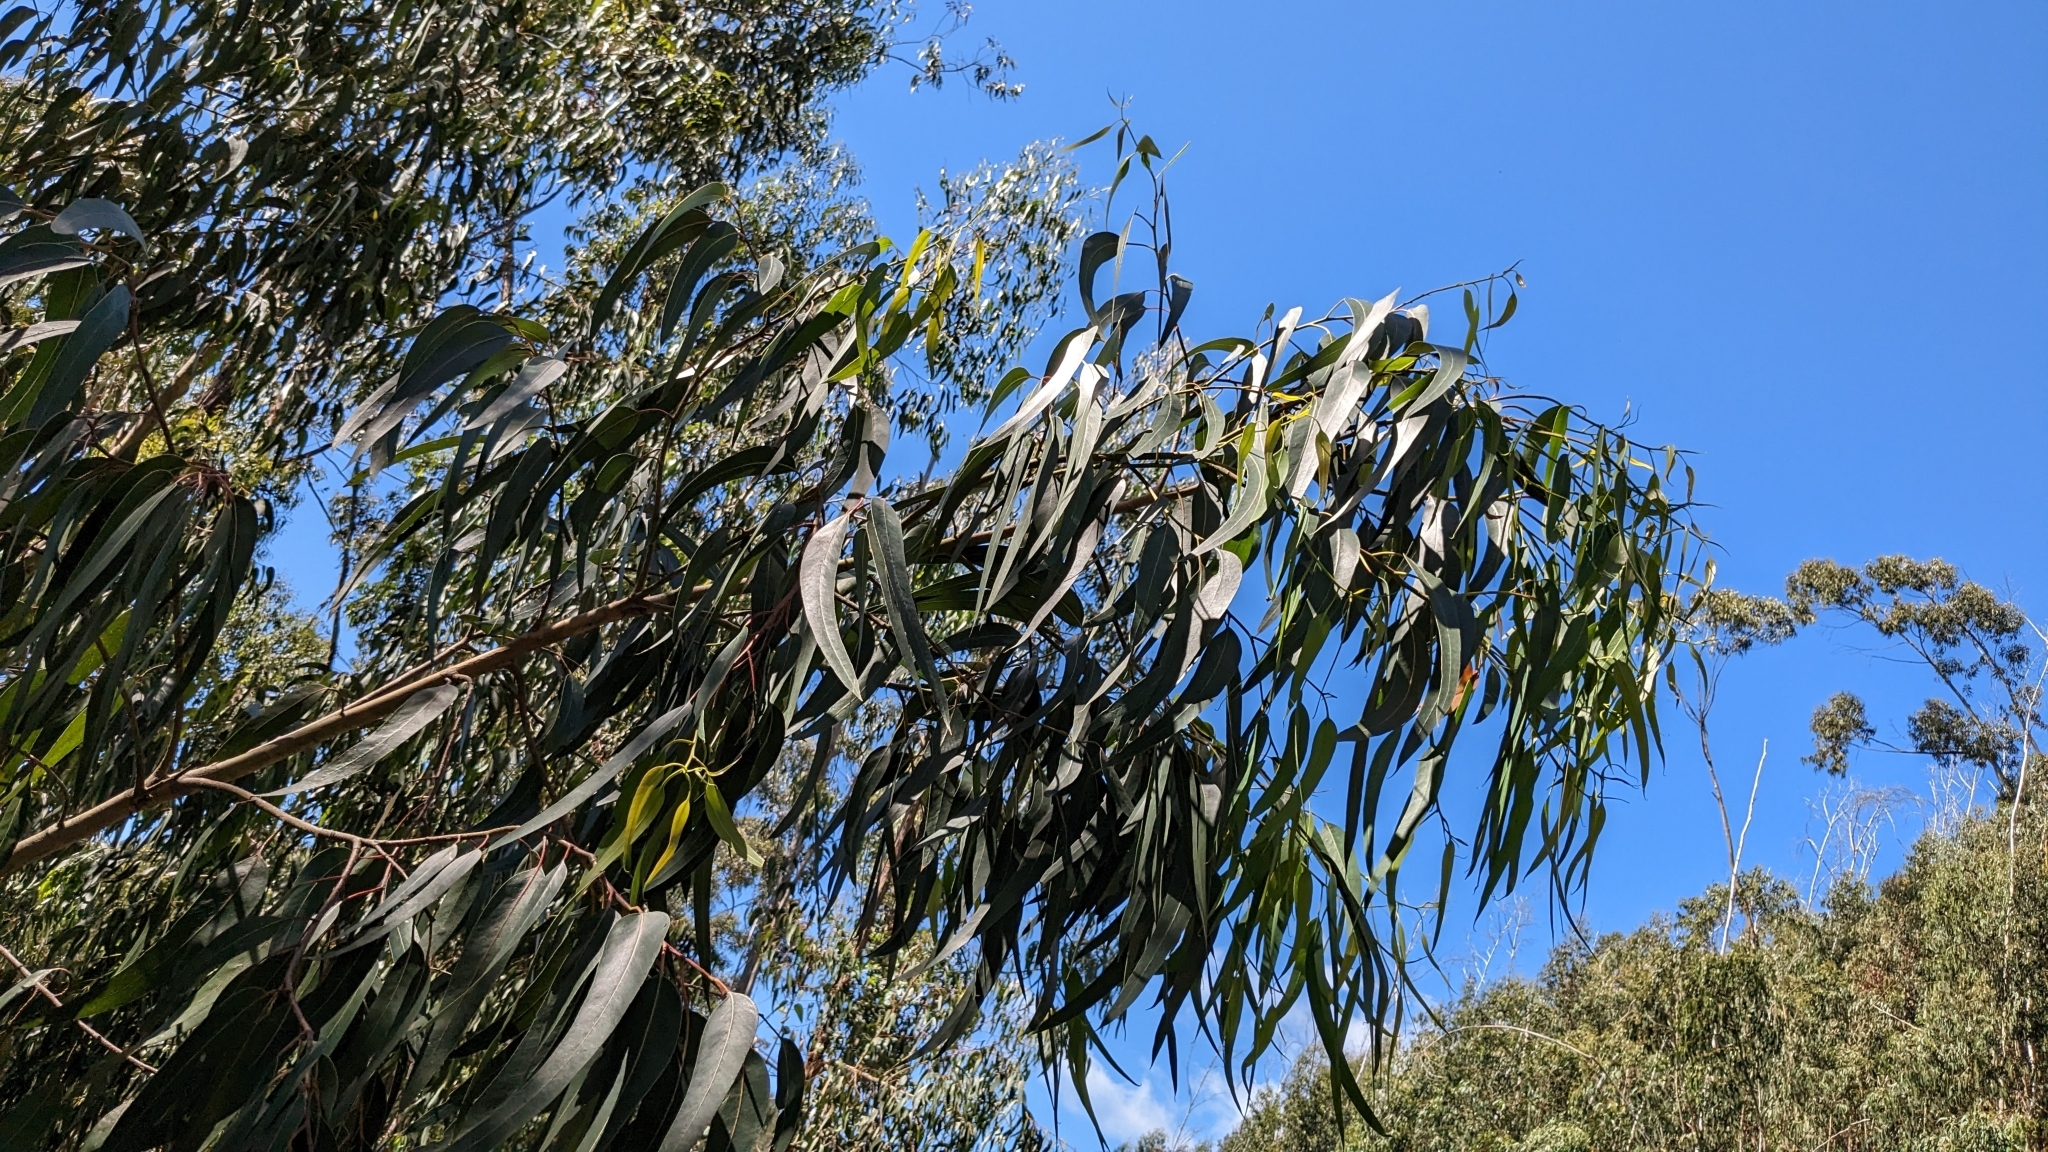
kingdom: Plantae
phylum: Tracheophyta
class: Magnoliopsida
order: Myrtales
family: Myrtaceae
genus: Eucalyptus
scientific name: Eucalyptus globulus
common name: Southern blue-gum
